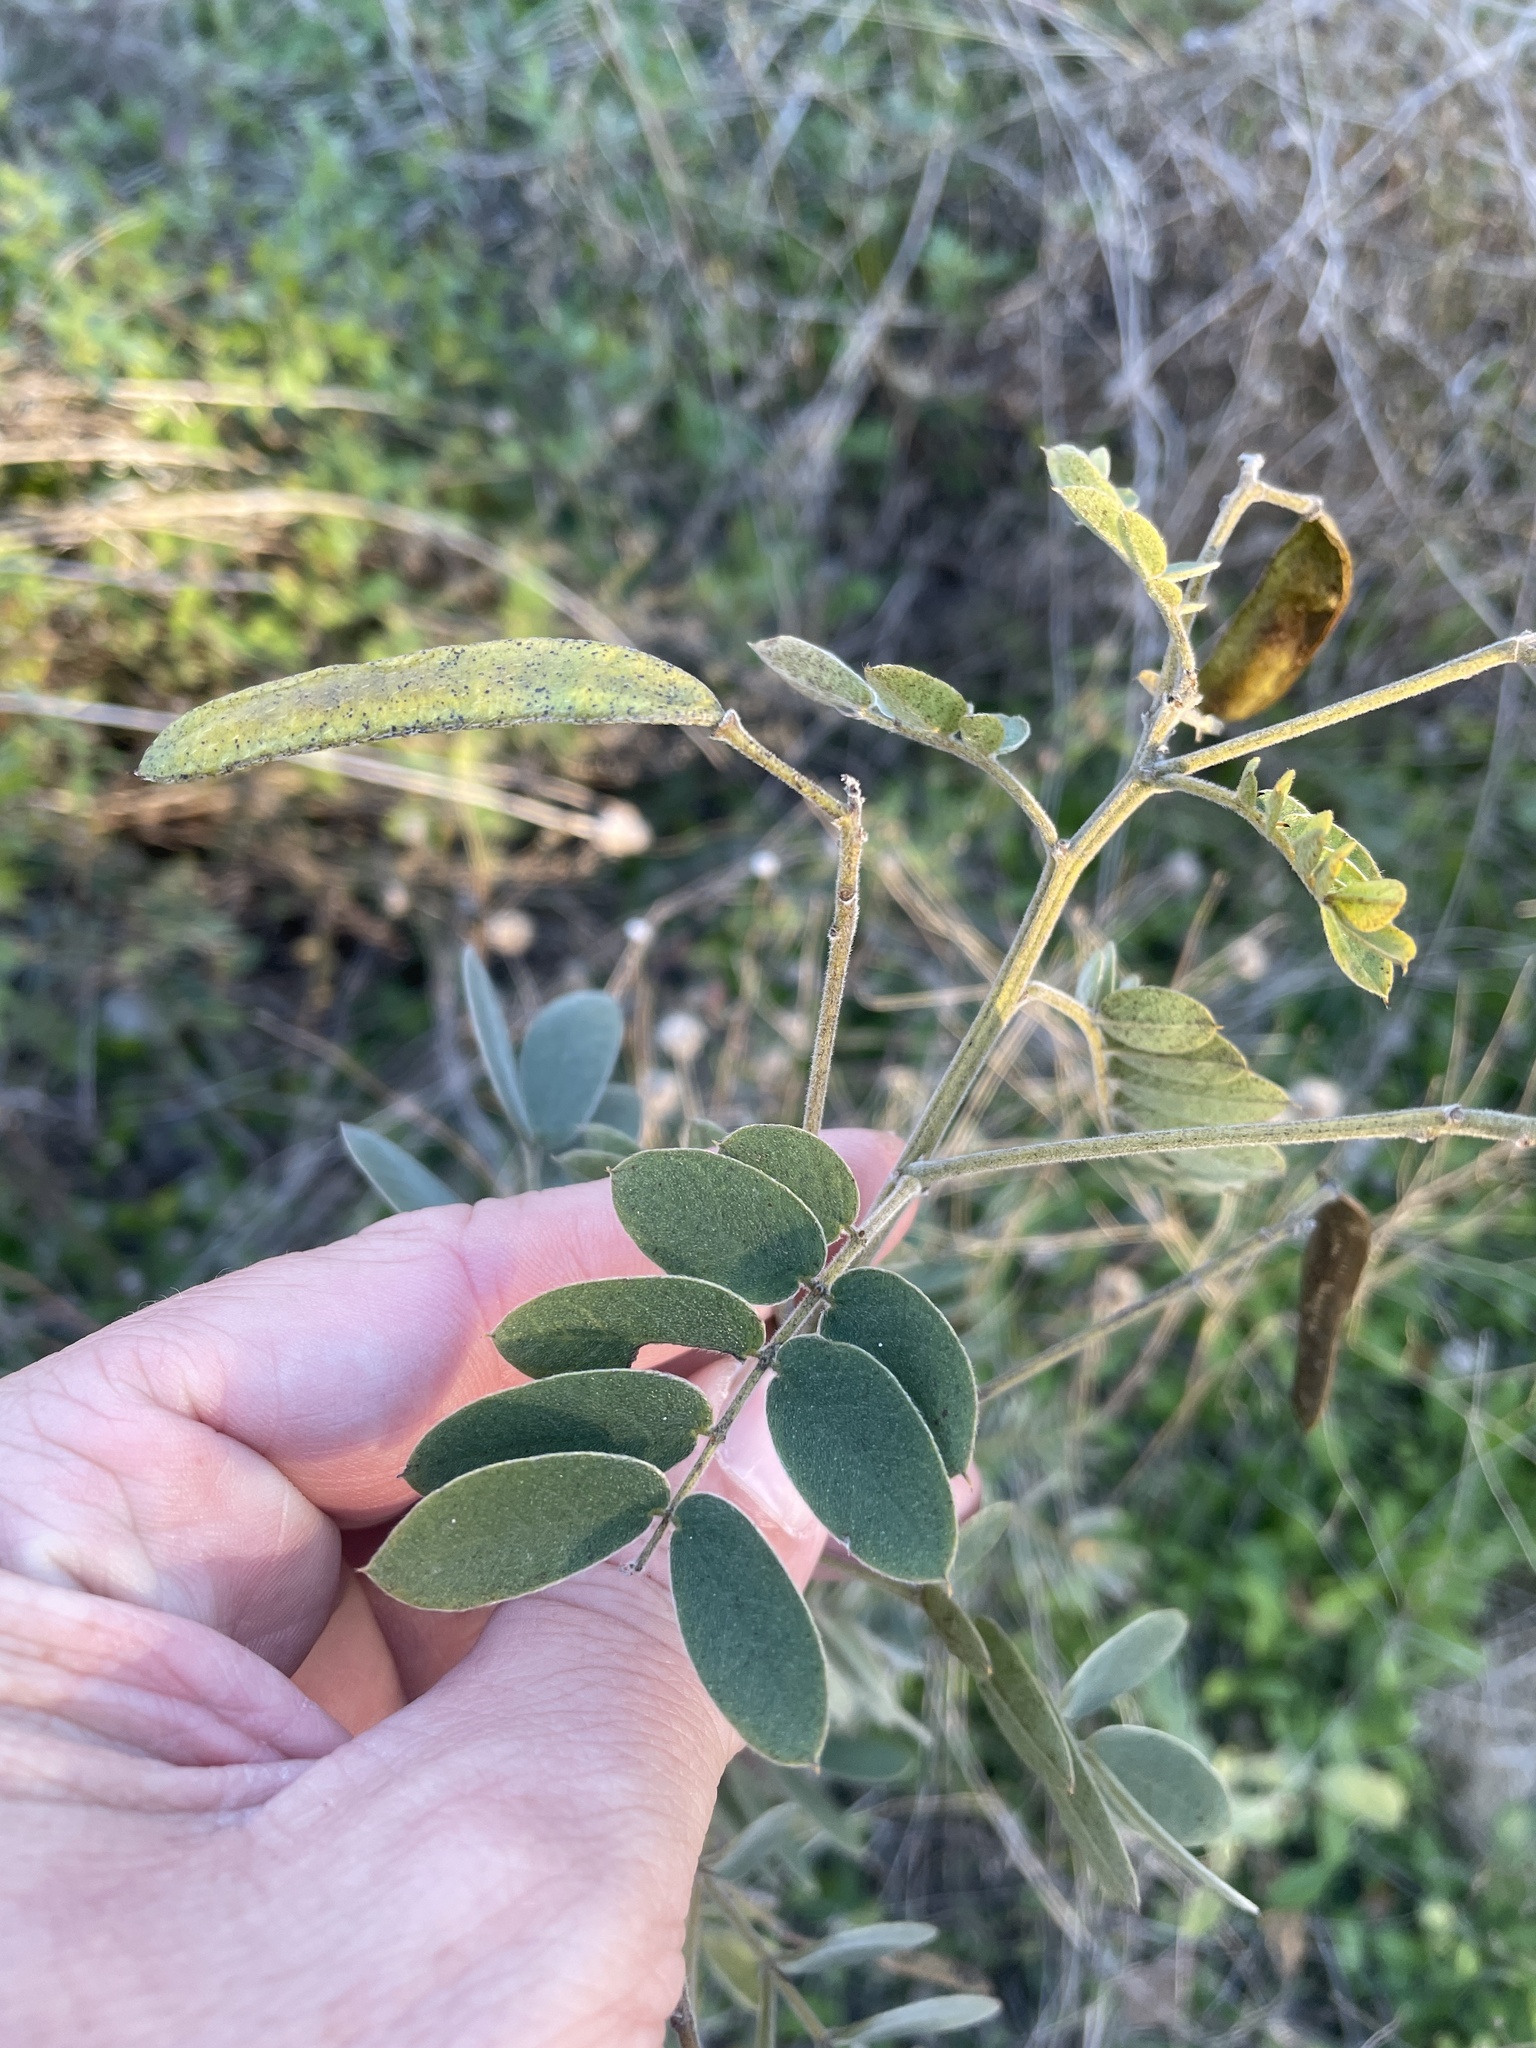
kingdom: Plantae
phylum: Tracheophyta
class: Magnoliopsida
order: Fabales
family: Fabaceae
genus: Senna
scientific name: Senna lindheimeriana
